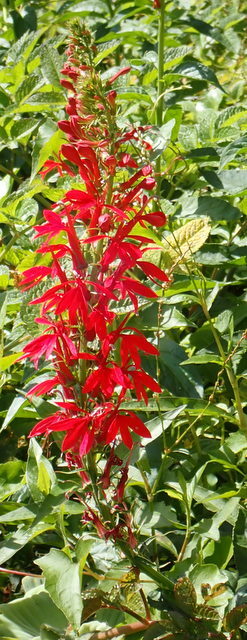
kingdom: Plantae
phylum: Tracheophyta
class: Magnoliopsida
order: Asterales
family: Campanulaceae
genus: Lobelia
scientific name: Lobelia cardinalis
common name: Cardinal flower
